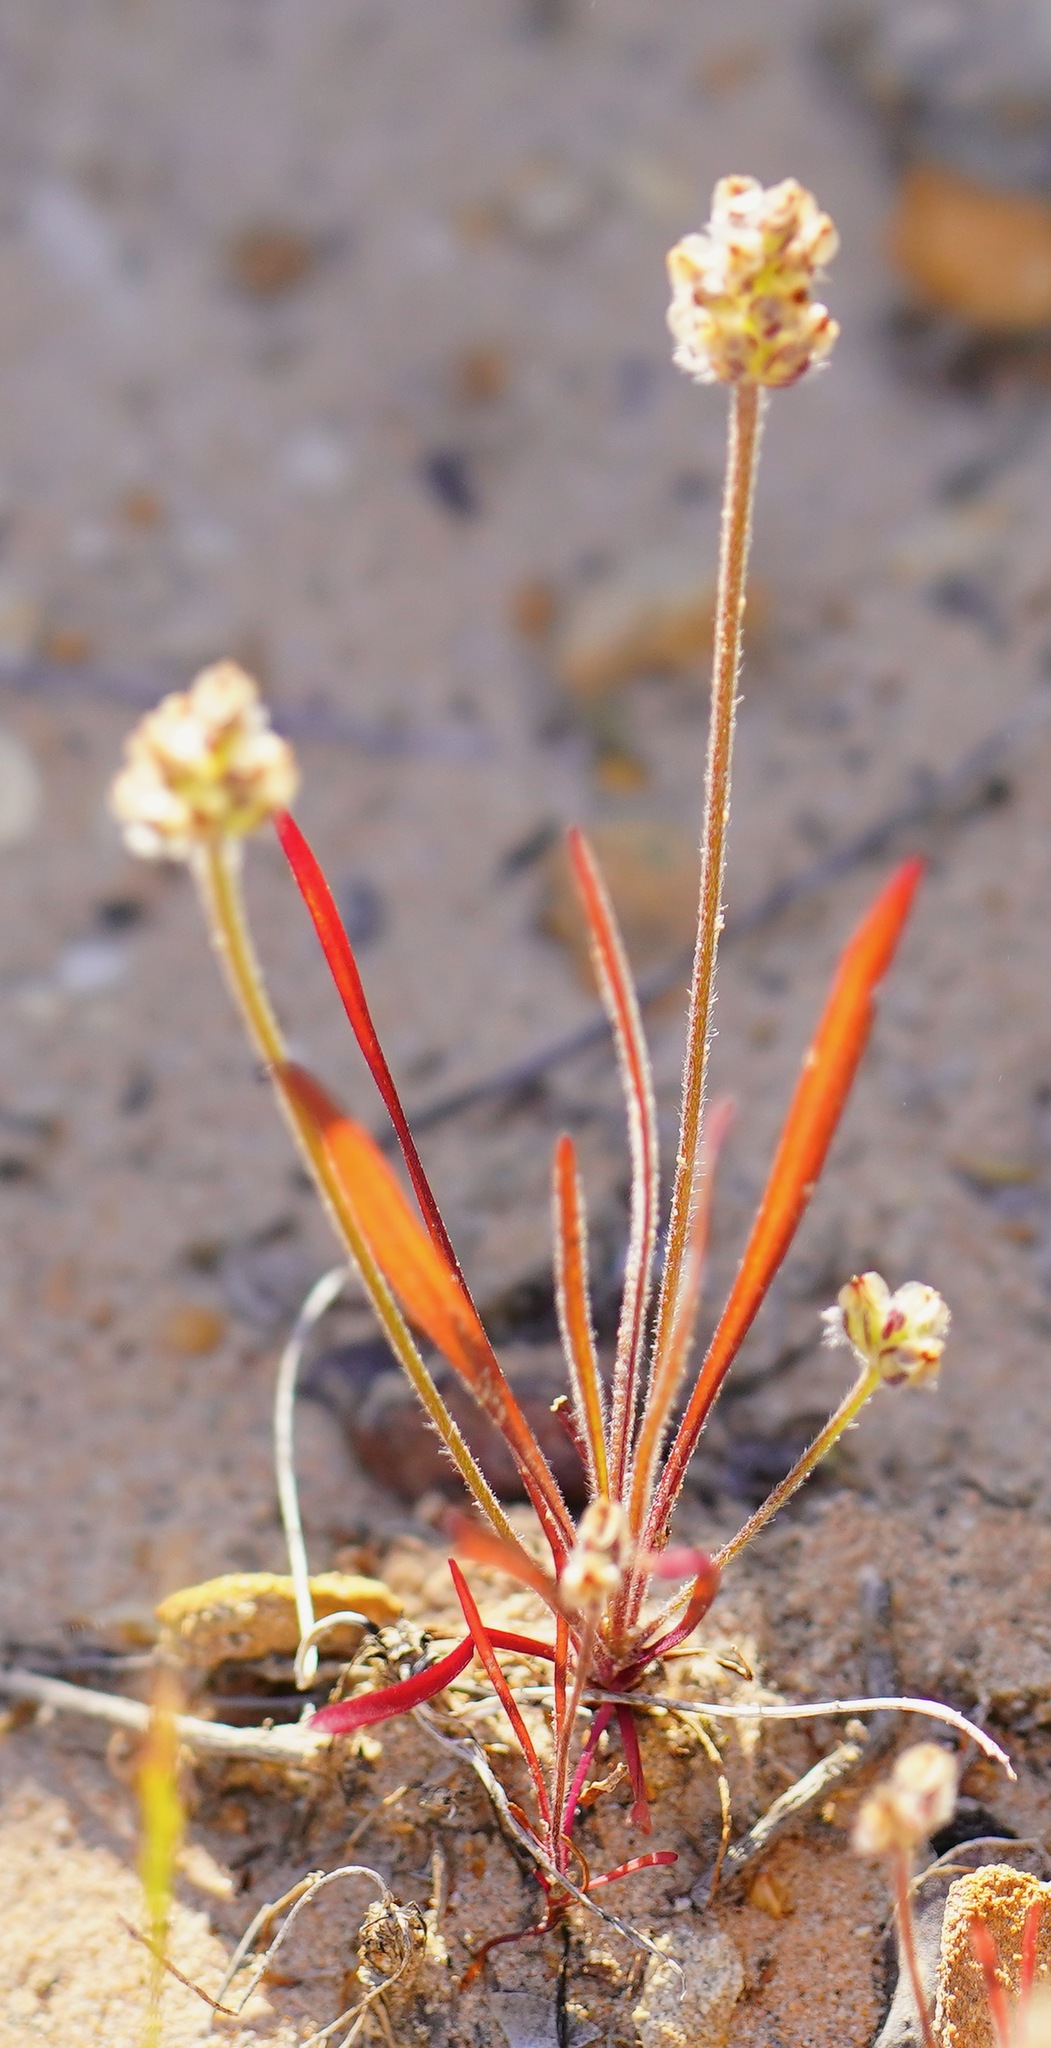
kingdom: Plantae
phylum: Tracheophyta
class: Magnoliopsida
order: Lamiales
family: Plantaginaceae
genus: Plantago
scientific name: Plantago erecta
